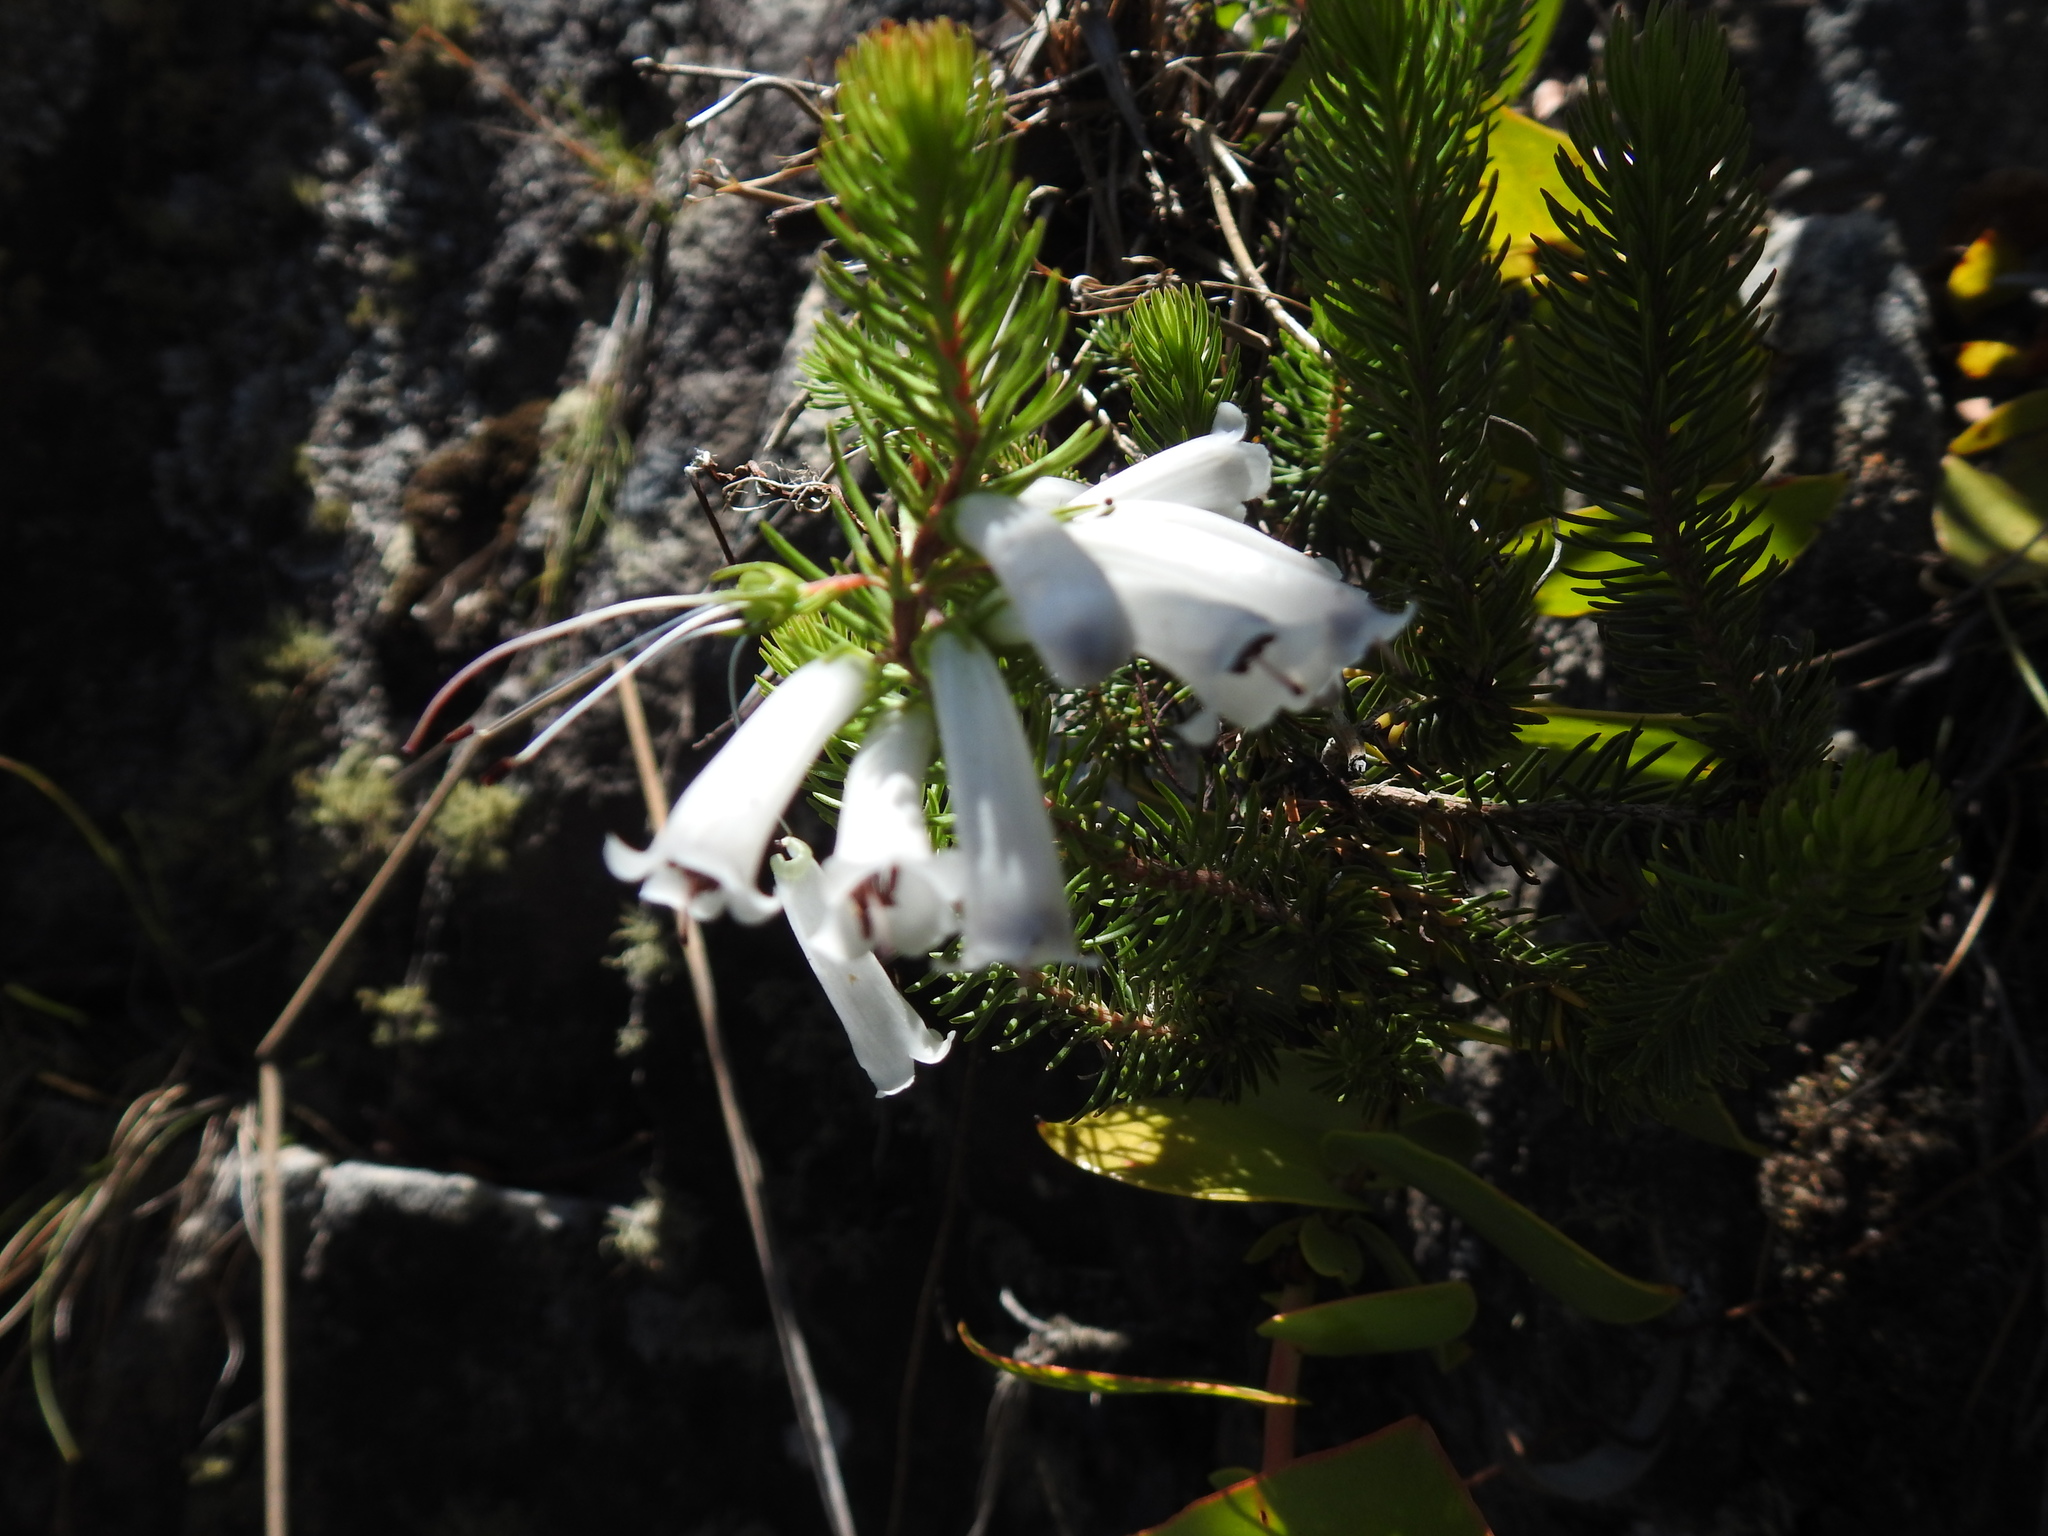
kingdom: Plantae
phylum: Tracheophyta
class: Magnoliopsida
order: Ericales
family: Ericaceae
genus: Erica
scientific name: Erica pinea
